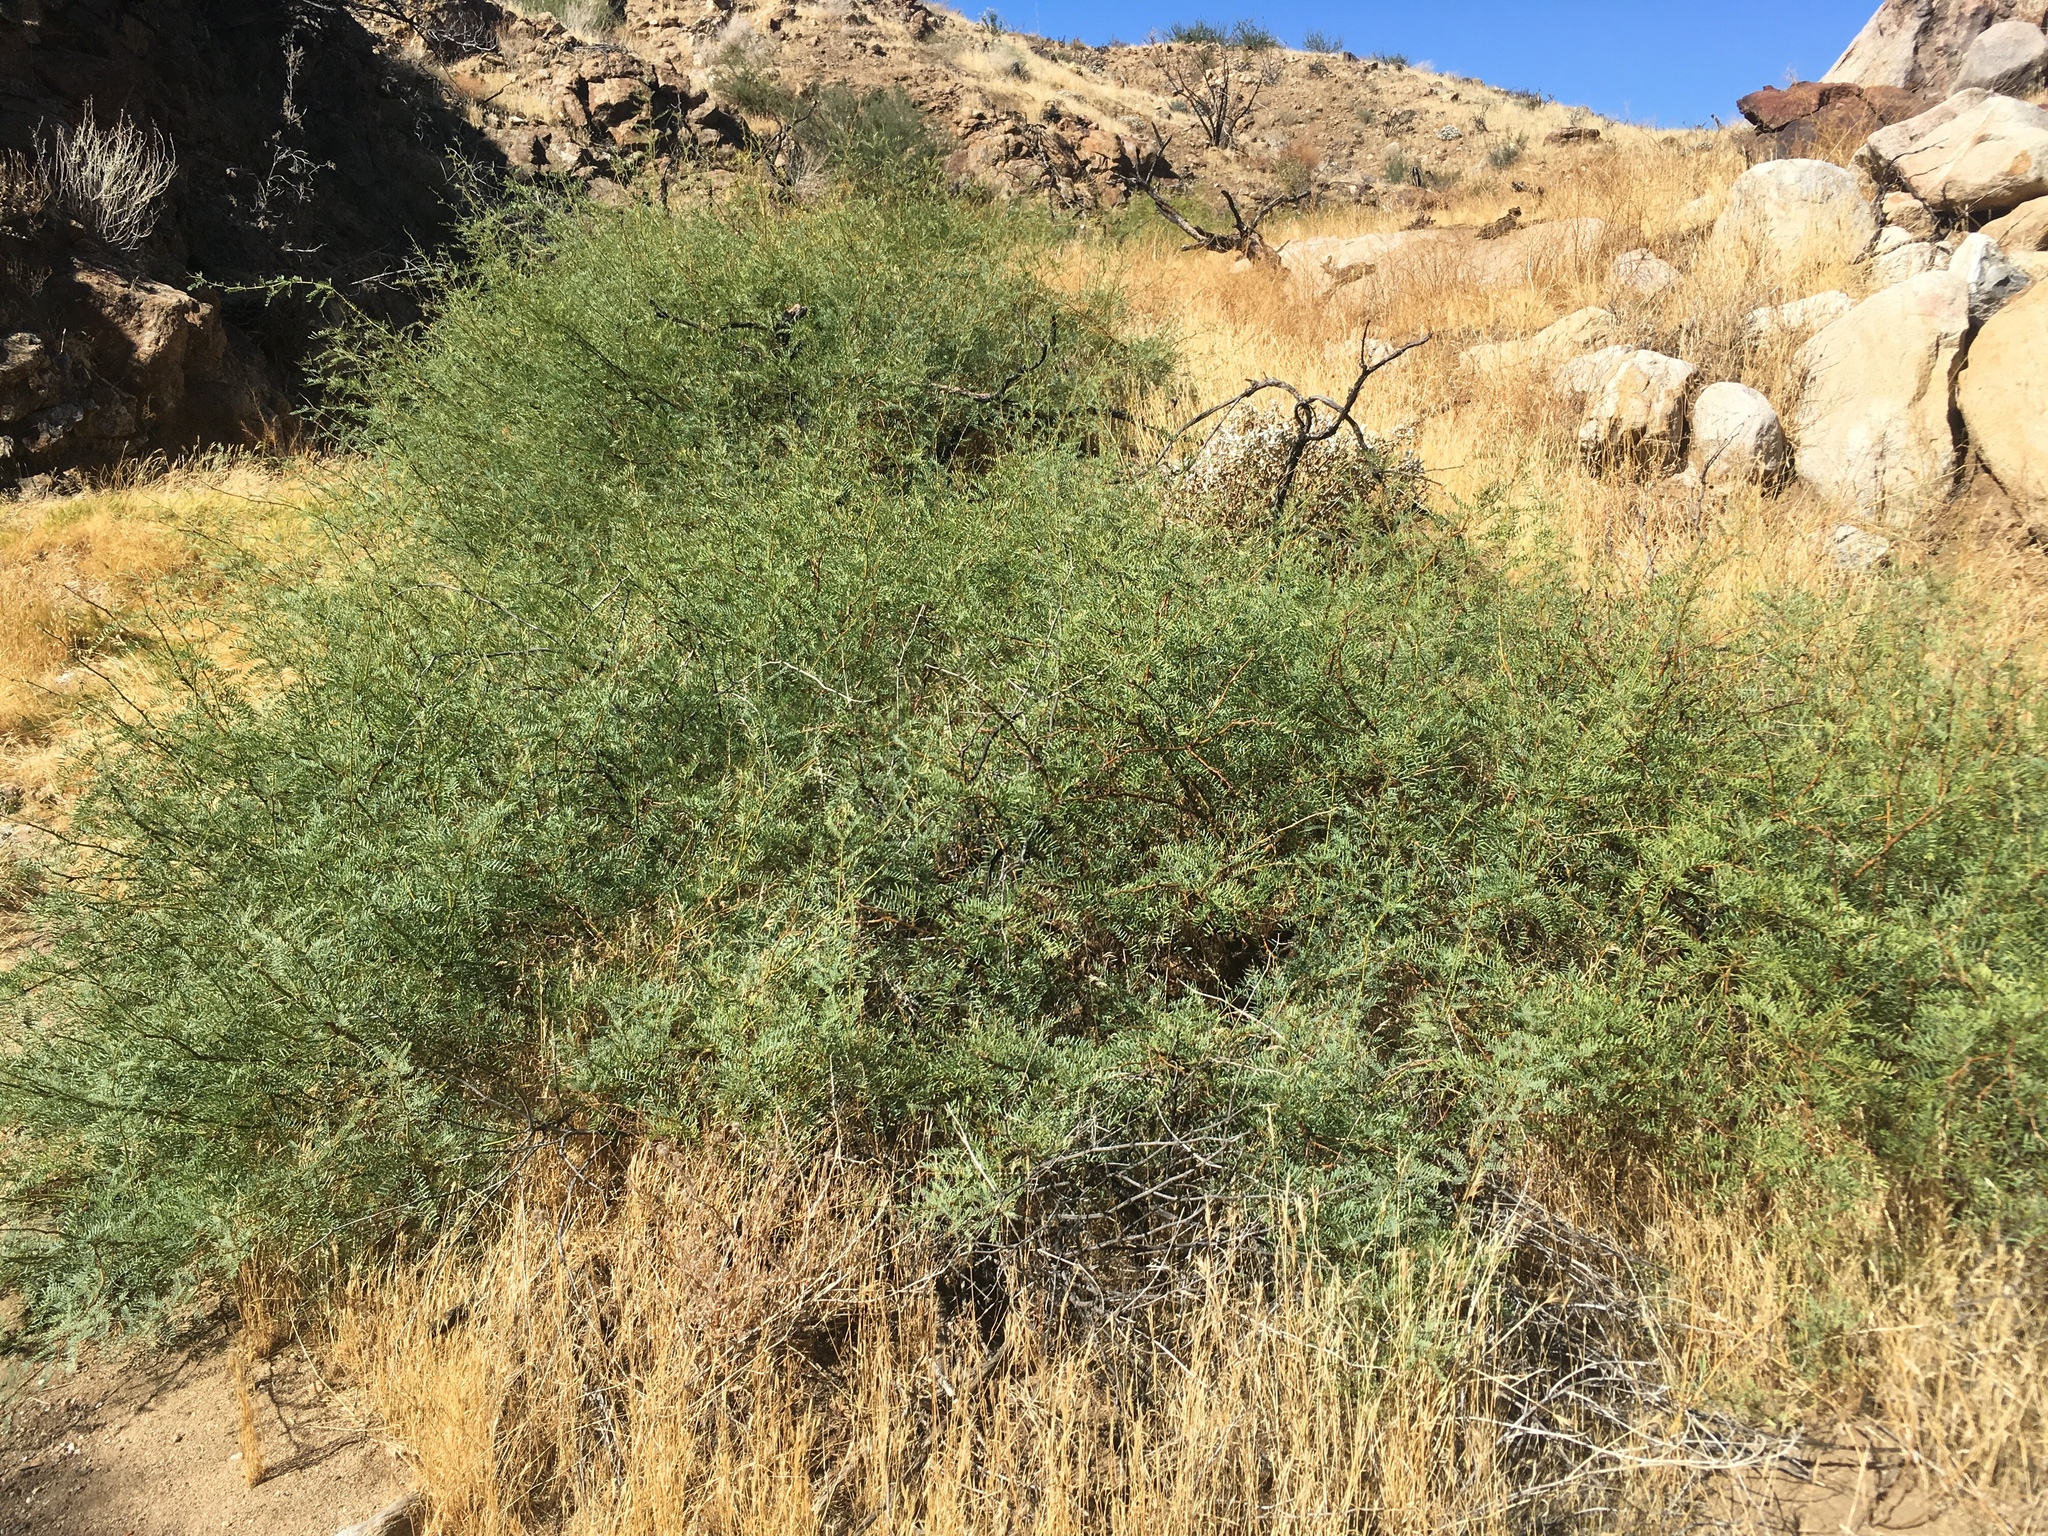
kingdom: Plantae
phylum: Tracheophyta
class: Magnoliopsida
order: Fabales
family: Fabaceae
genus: Prosopis
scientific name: Prosopis pubescens
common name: Screw-bean
